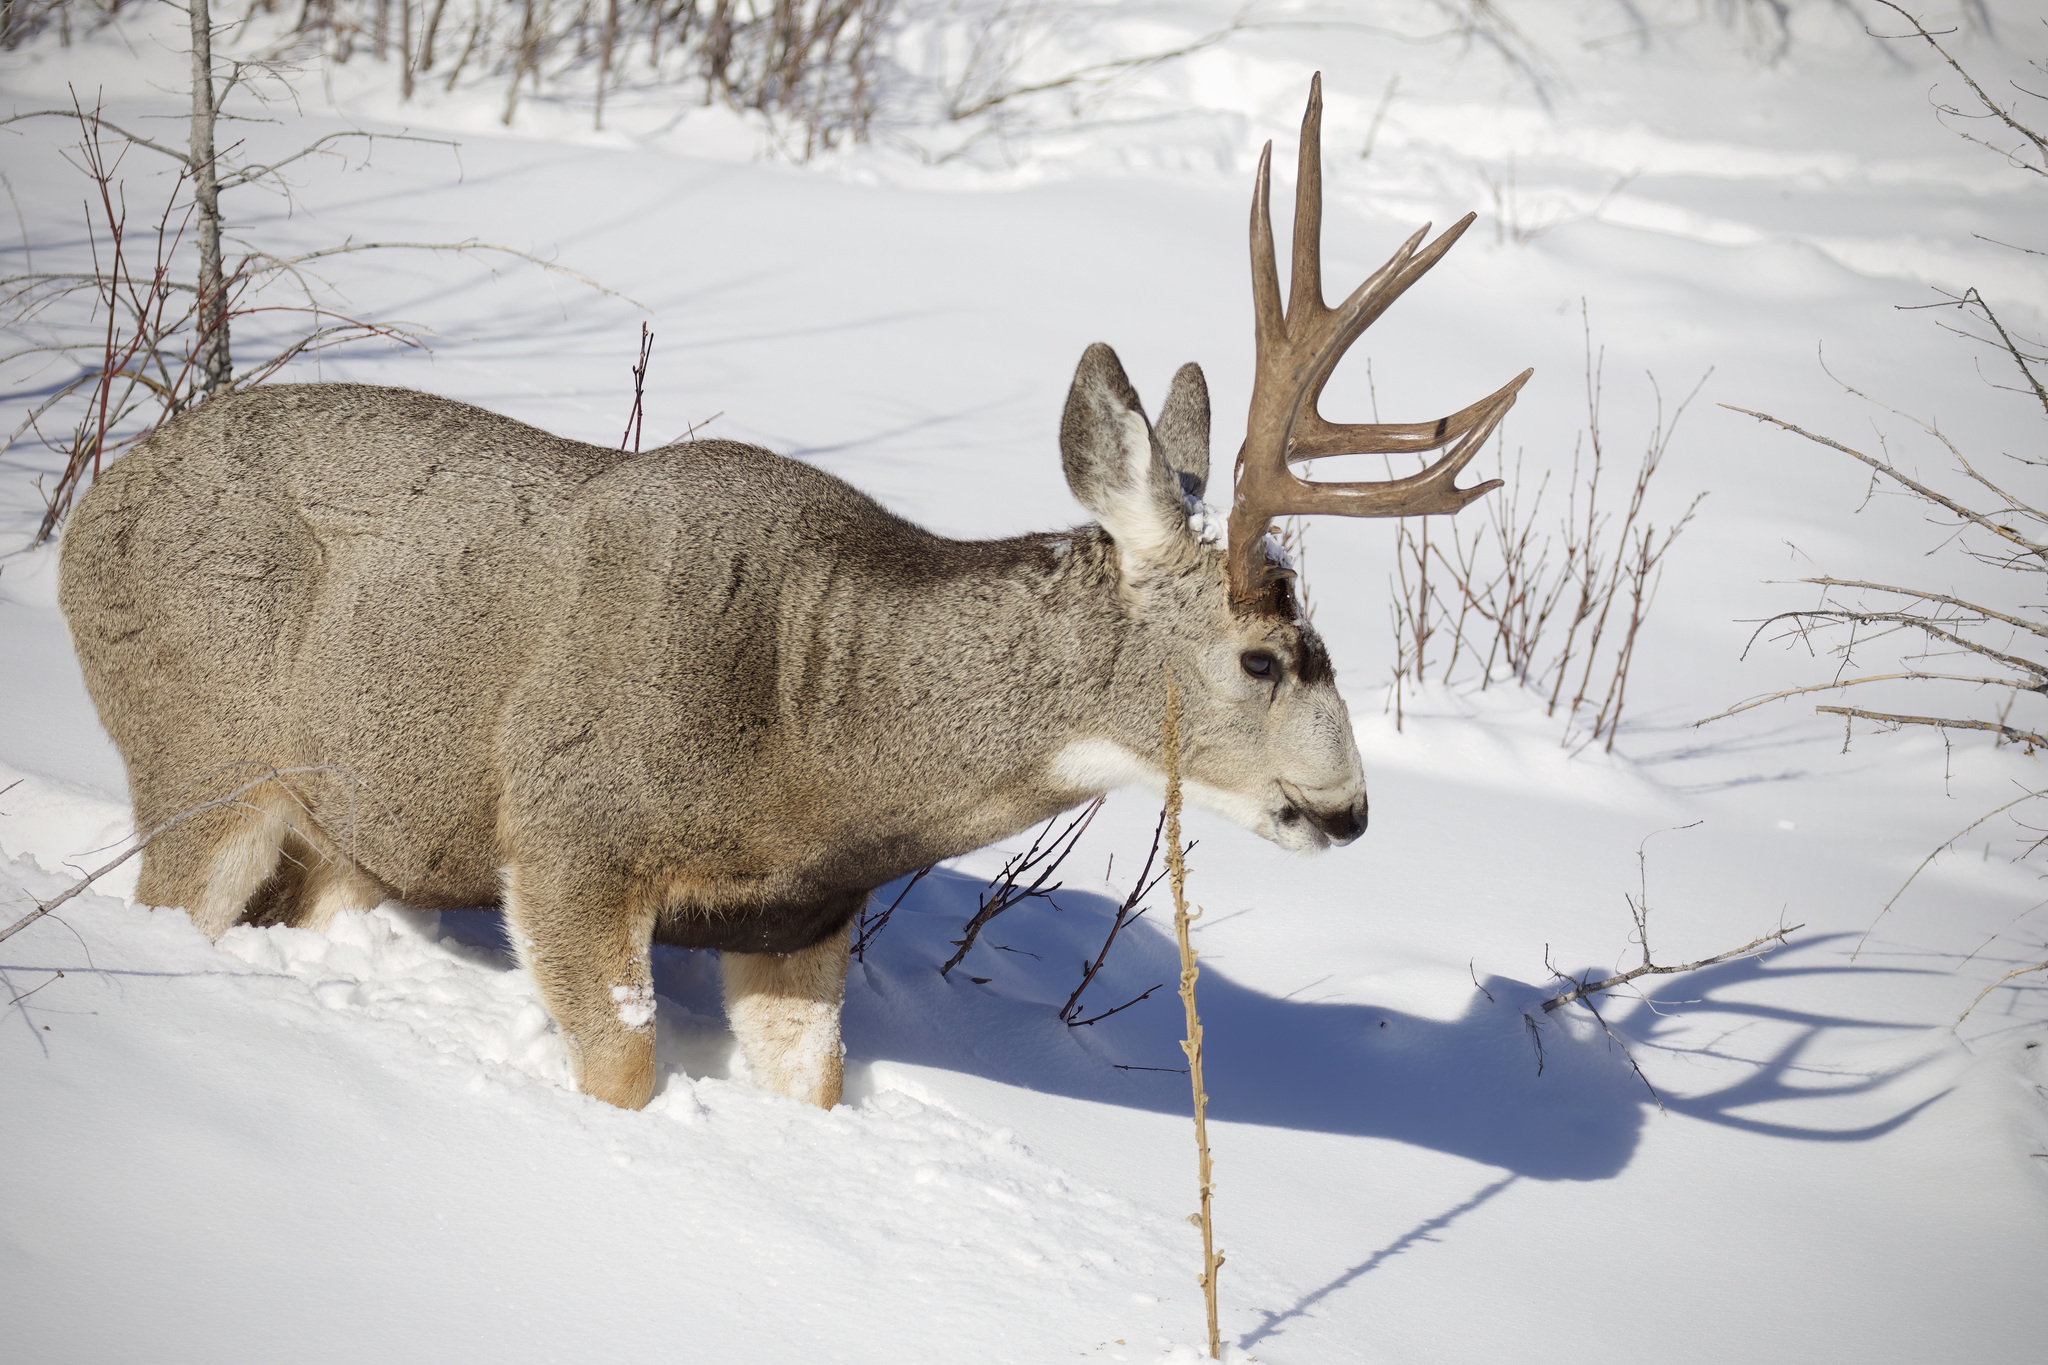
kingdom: Animalia
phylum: Chordata
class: Mammalia
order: Artiodactyla
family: Cervidae
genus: Odocoileus
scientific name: Odocoileus hemionus
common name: Mule deer
